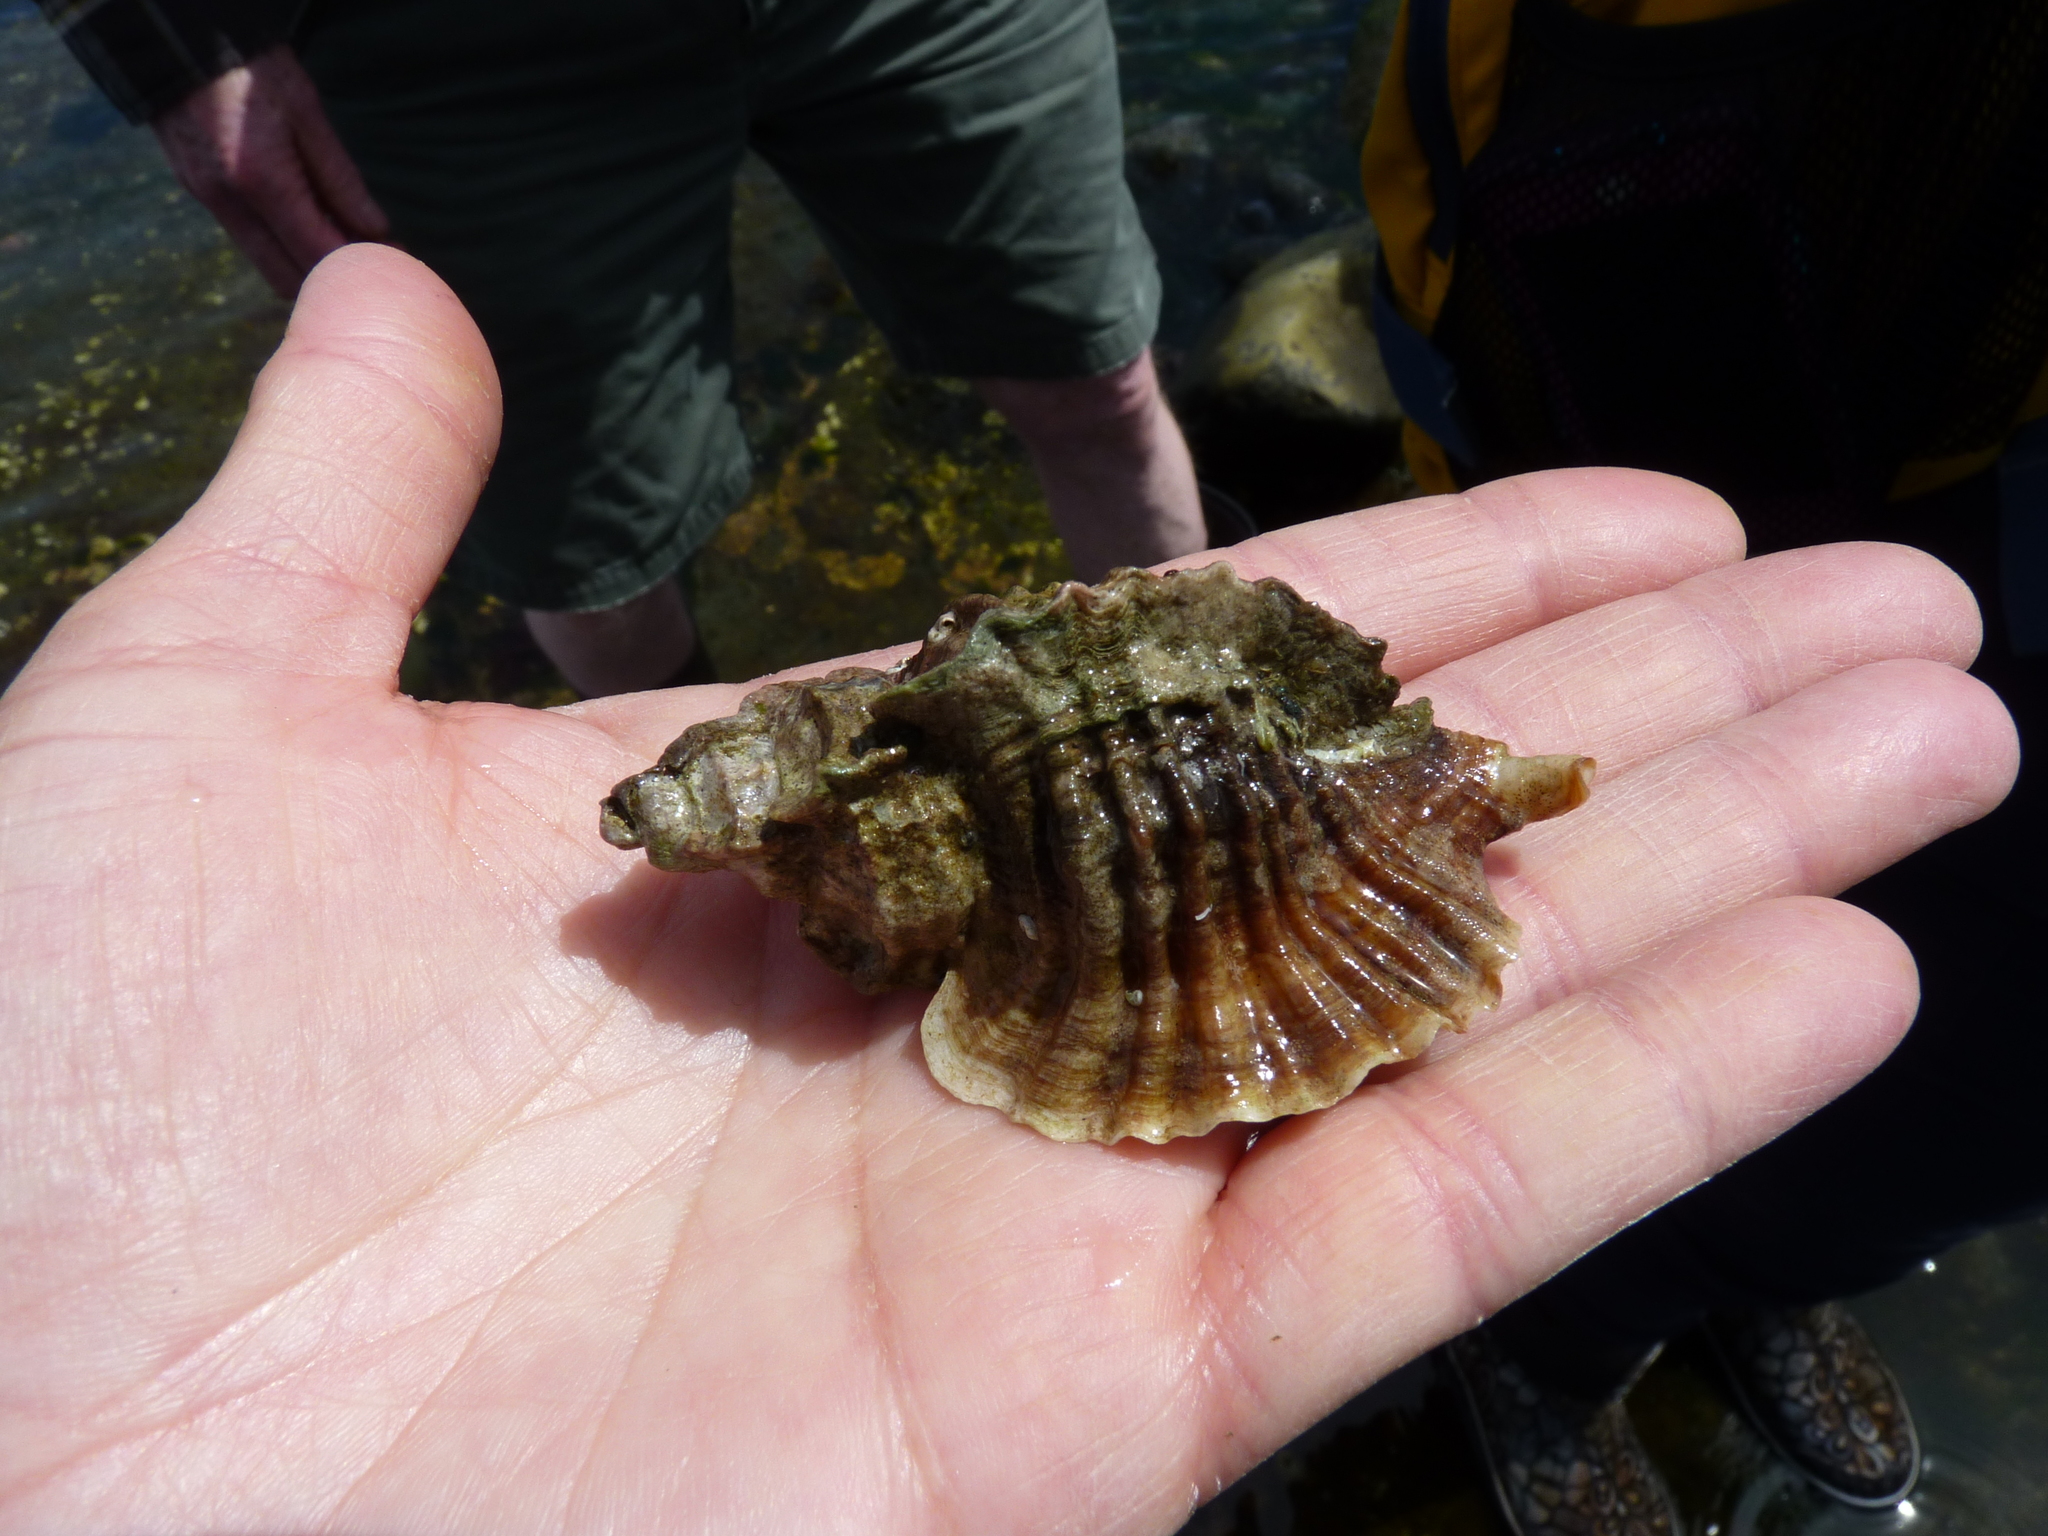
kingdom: Animalia
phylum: Mollusca
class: Gastropoda
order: Neogastropoda
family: Muricidae
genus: Ceratostoma
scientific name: Ceratostoma foliatum
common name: Foliate thorn purpura
